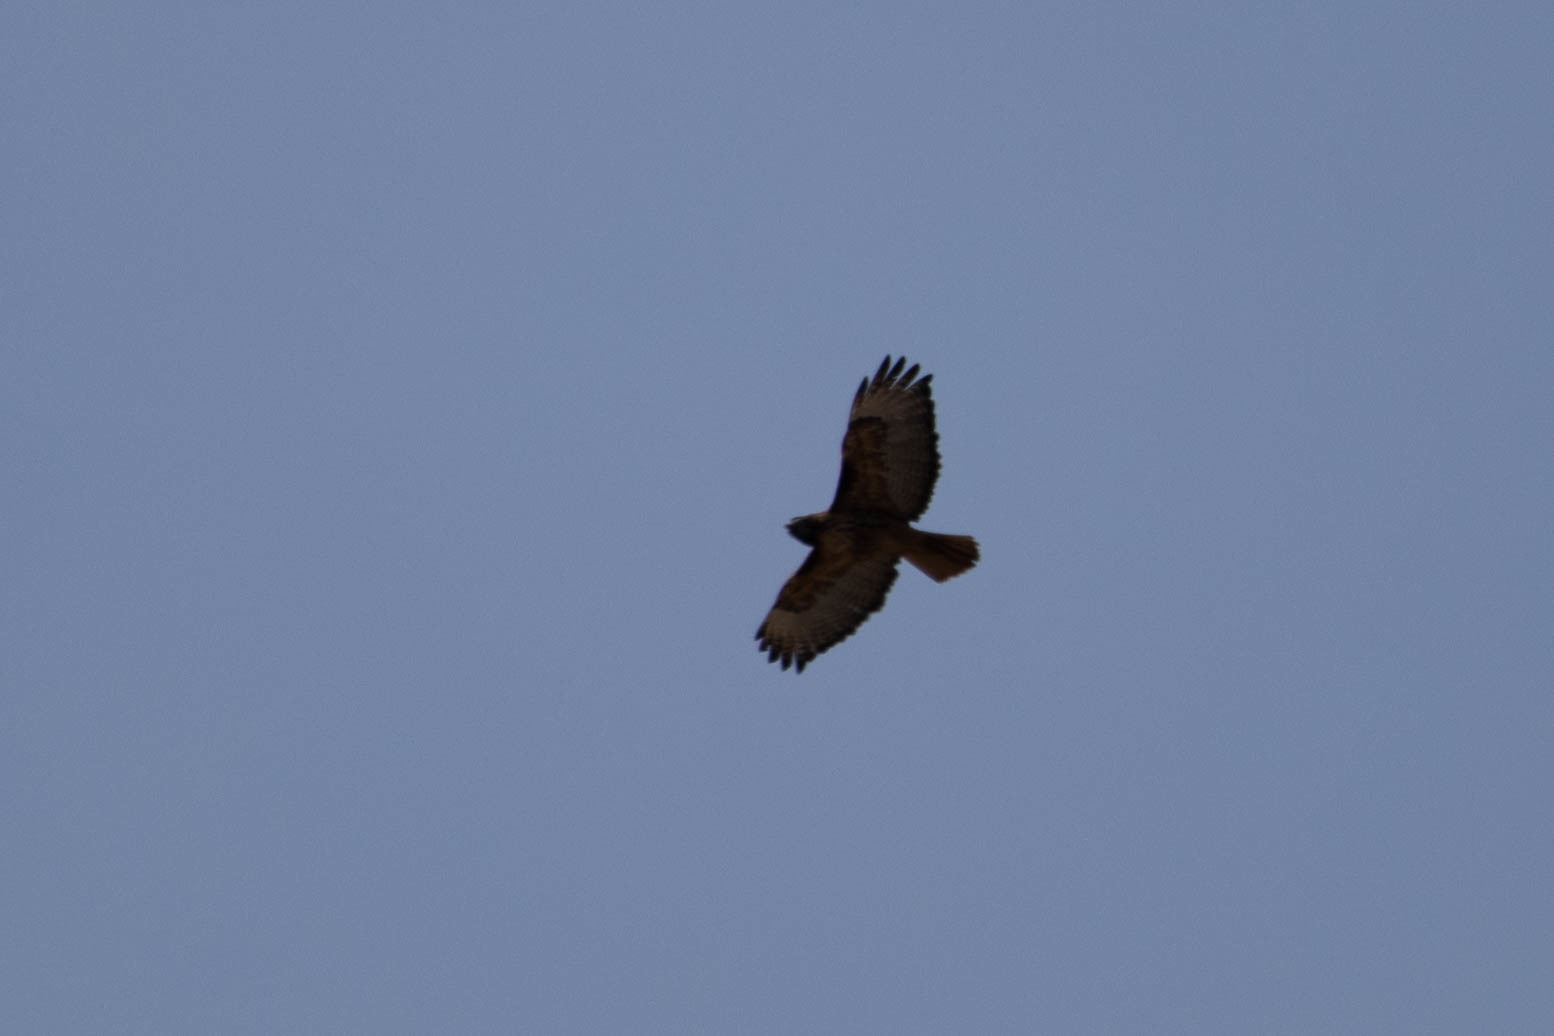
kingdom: Animalia
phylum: Chordata
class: Aves
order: Accipitriformes
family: Accipitridae
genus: Buteo
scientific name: Buteo jamaicensis
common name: Red-tailed hawk
